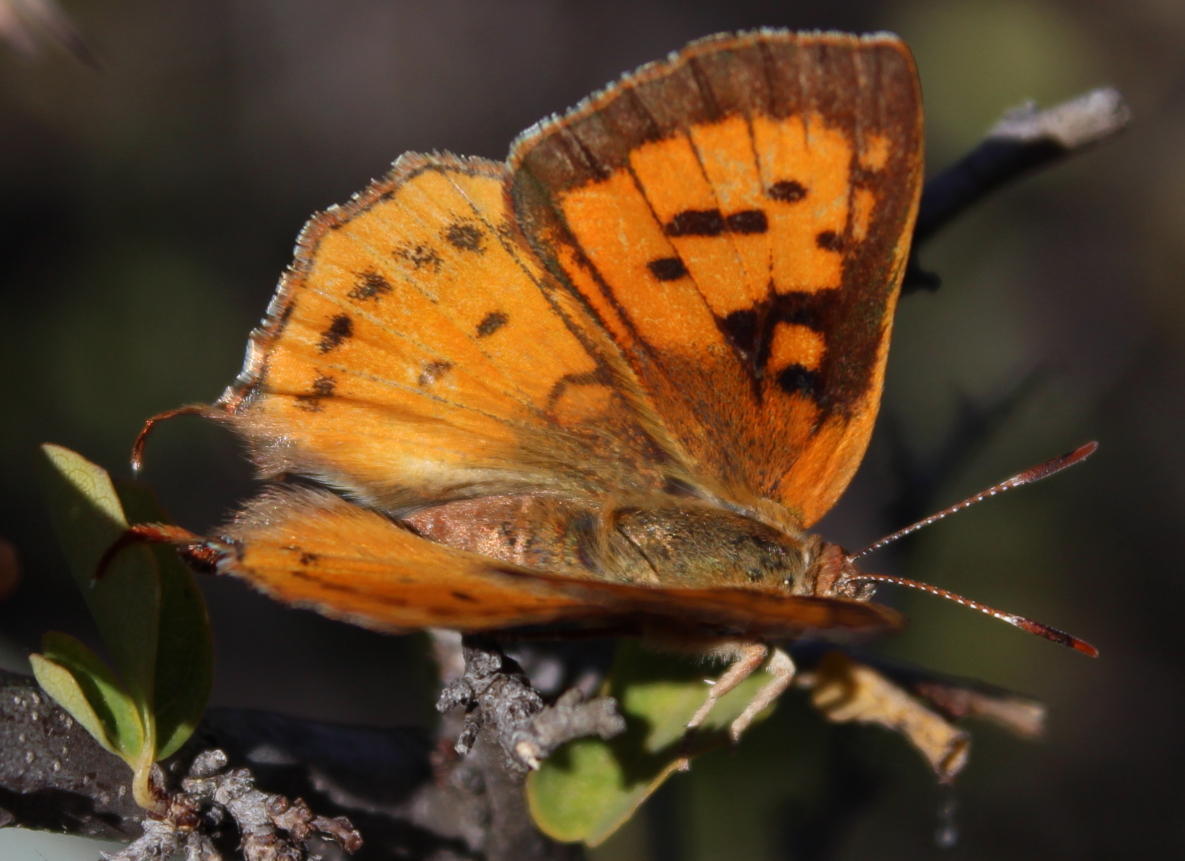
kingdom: Animalia
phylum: Arthropoda
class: Insecta
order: Lepidoptera
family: Lycaenidae
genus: Axiocerses
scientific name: Axiocerses perion
